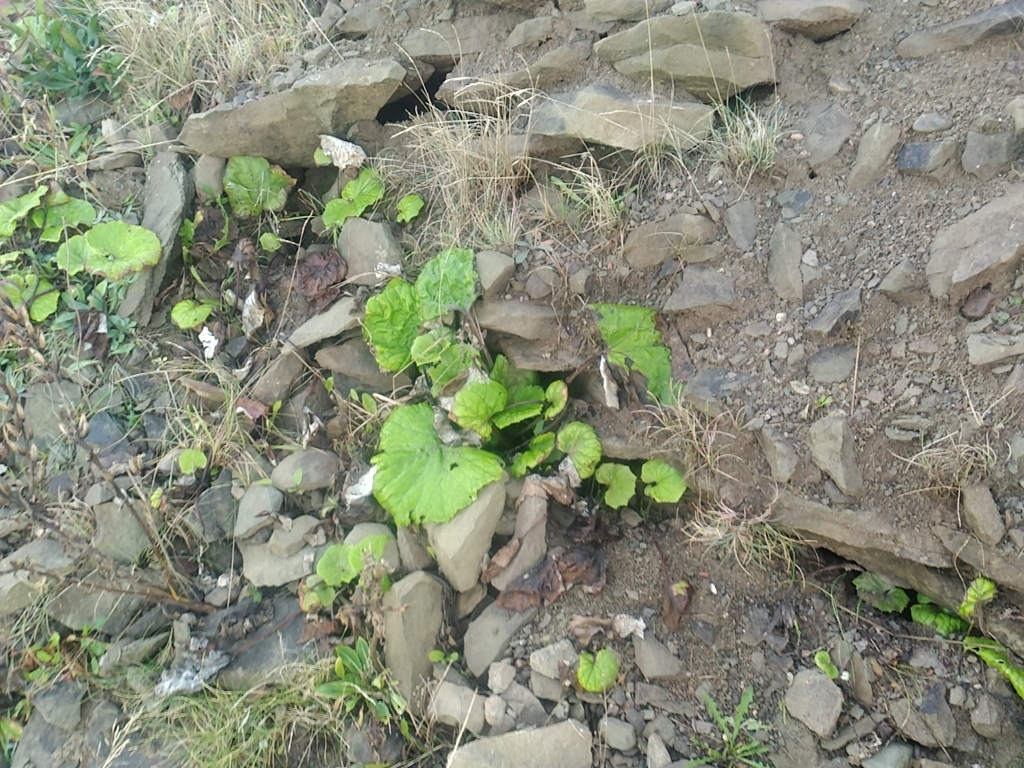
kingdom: Plantae
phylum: Tracheophyta
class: Magnoliopsida
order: Asterales
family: Asteraceae
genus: Tussilago
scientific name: Tussilago farfara
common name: Coltsfoot
